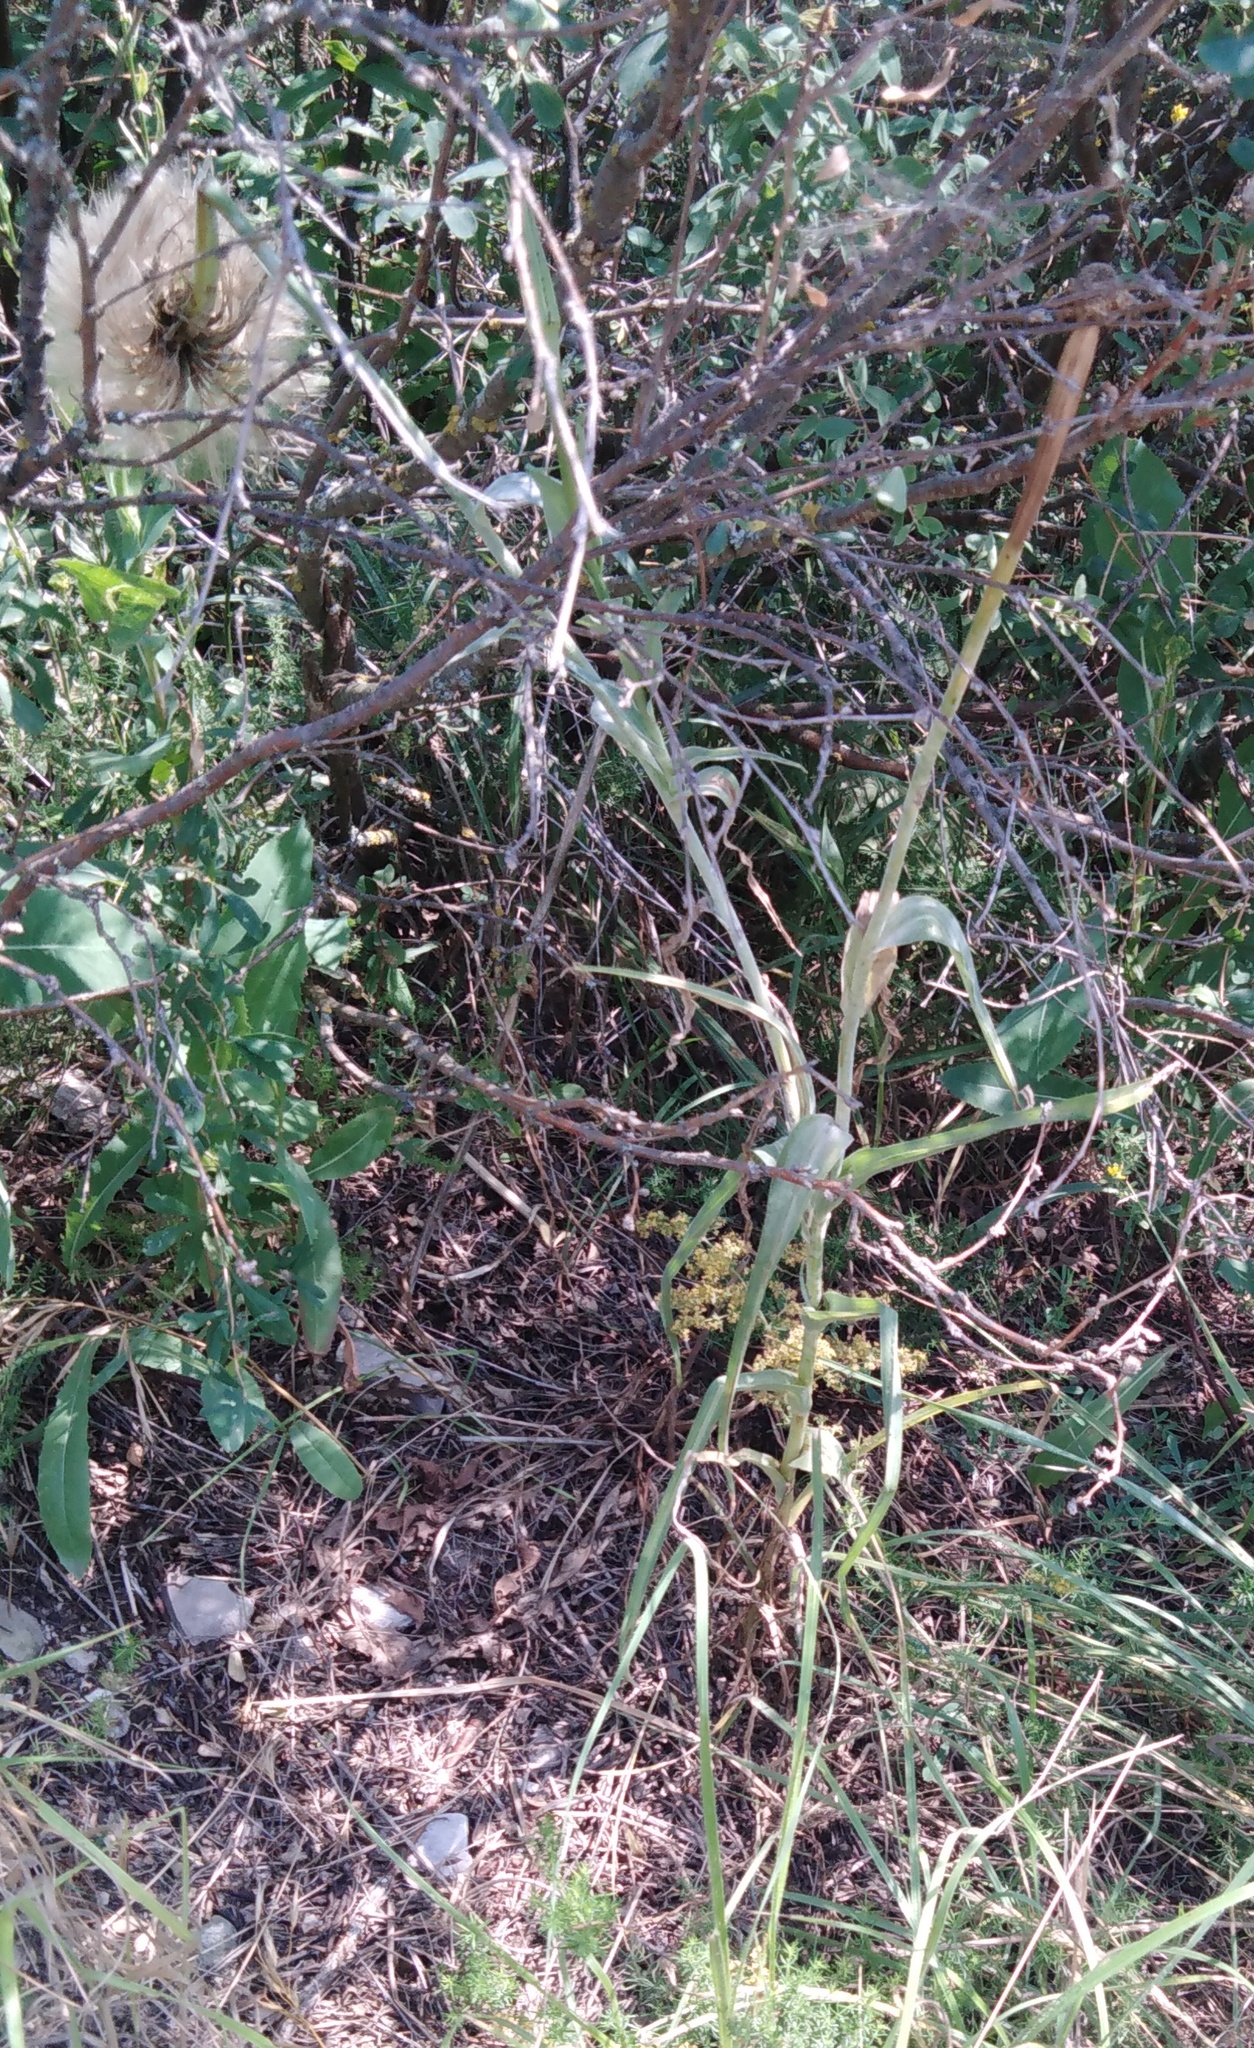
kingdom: Plantae
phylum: Tracheophyta
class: Magnoliopsida
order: Asterales
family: Asteraceae
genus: Tragopogon
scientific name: Tragopogon dubius
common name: Yellow salsify
